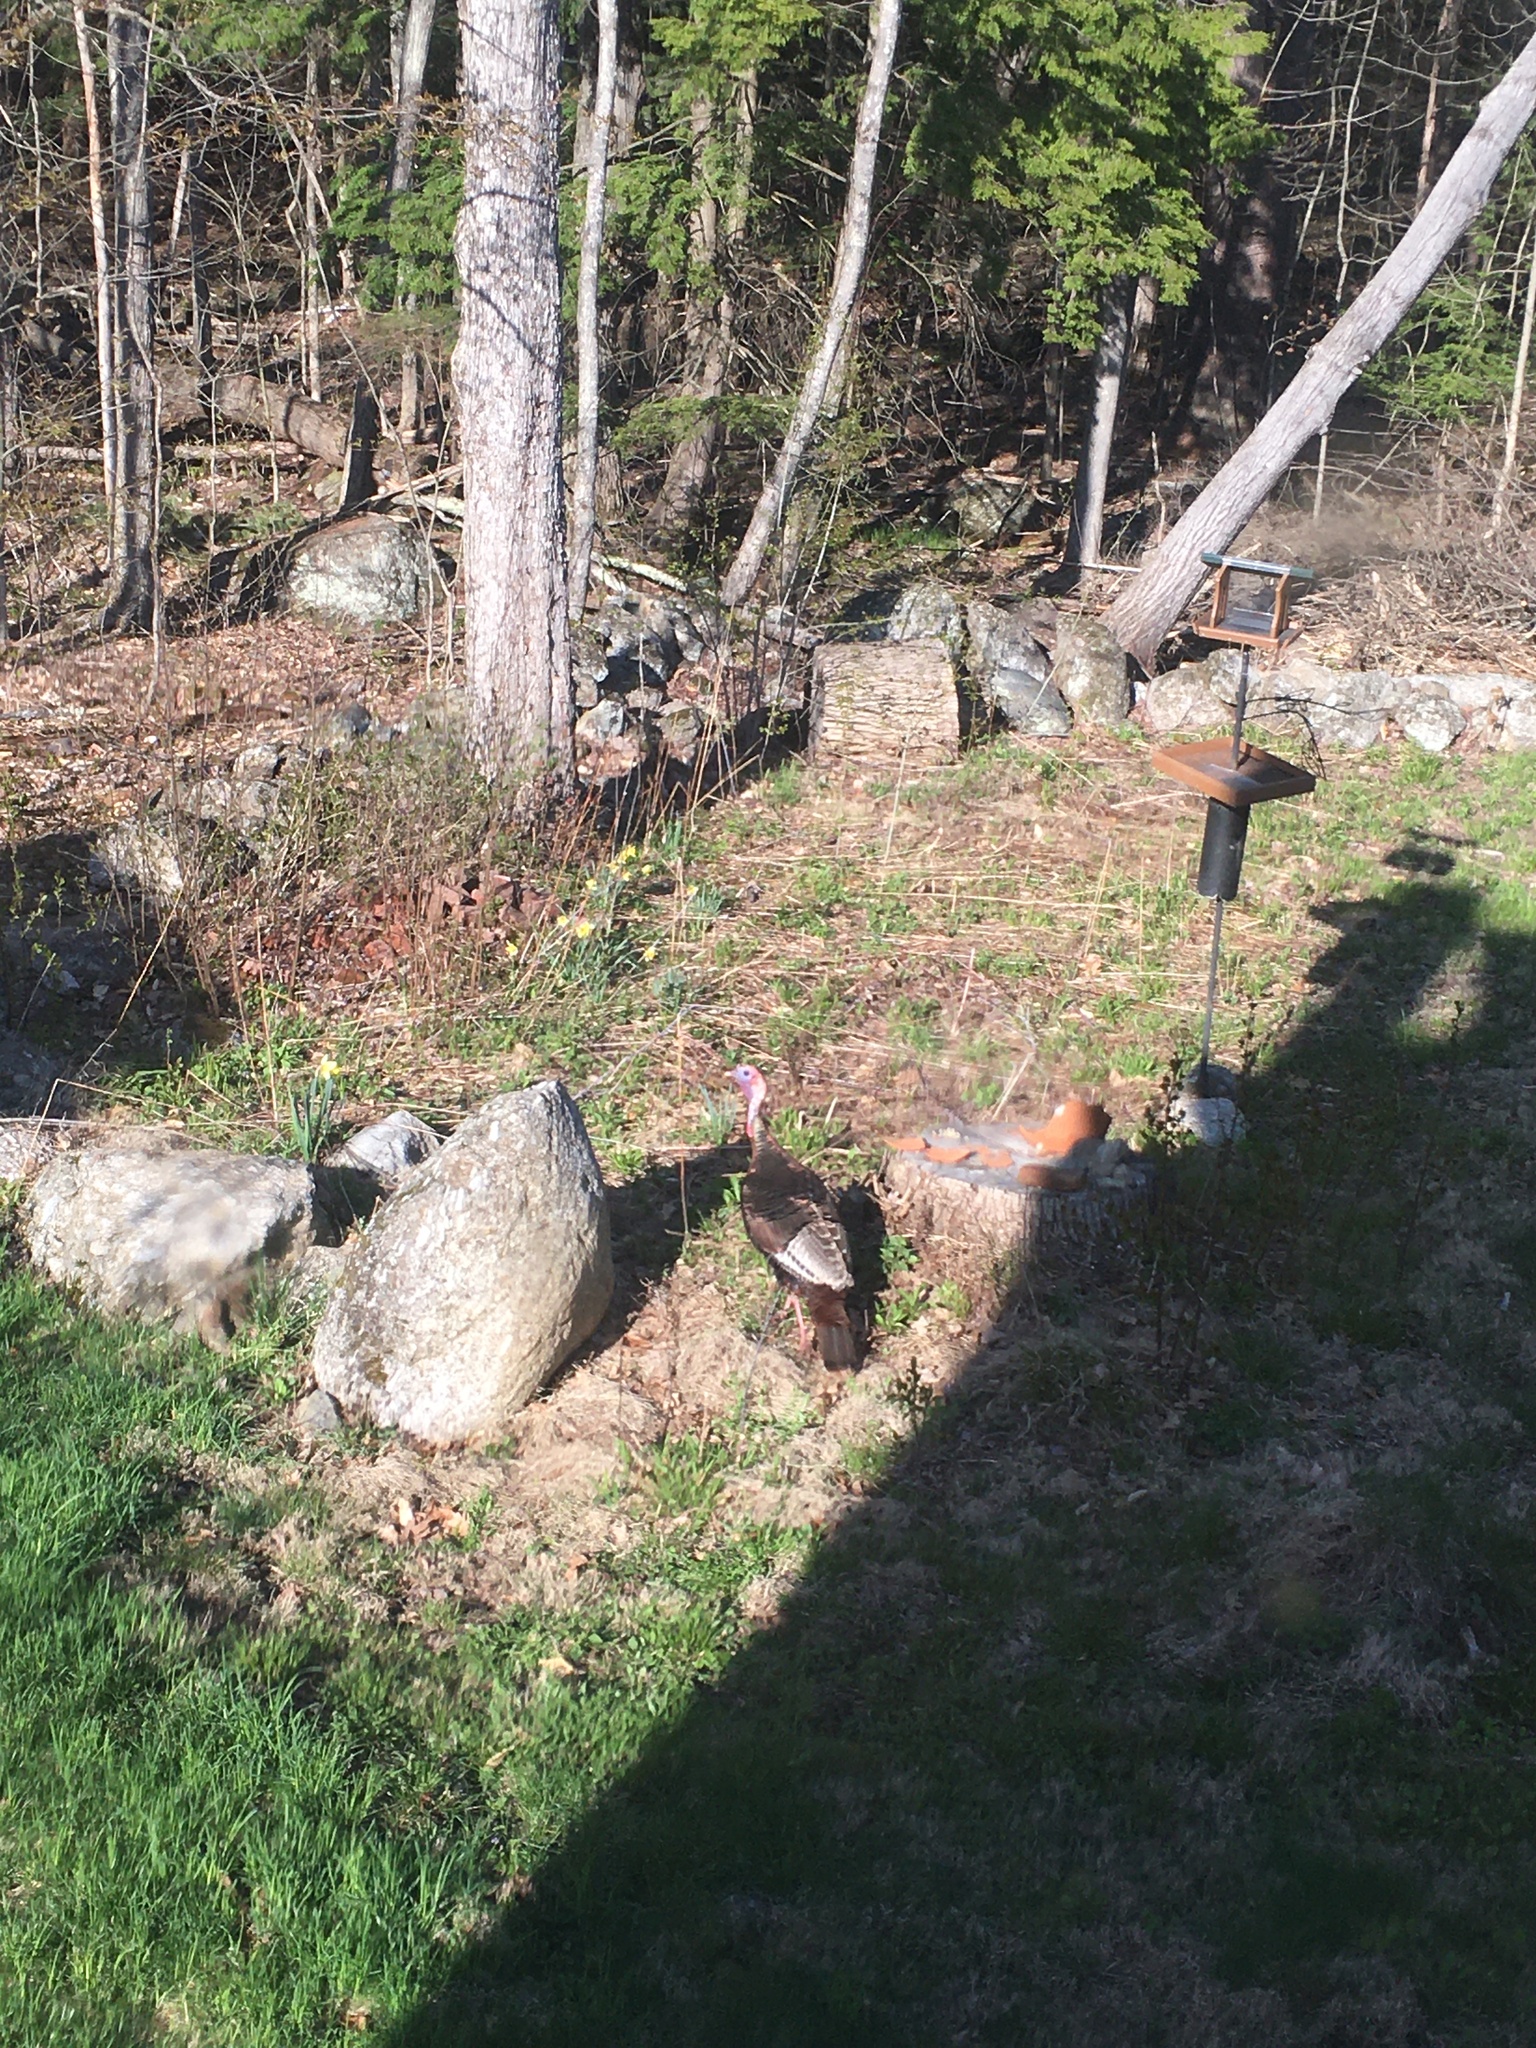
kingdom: Animalia
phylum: Chordata
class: Aves
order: Galliformes
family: Phasianidae
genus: Meleagris
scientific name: Meleagris gallopavo
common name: Wild turkey
